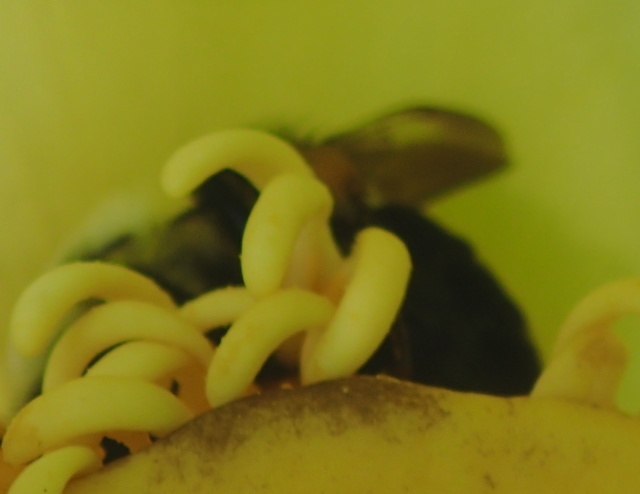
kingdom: Animalia
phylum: Arthropoda
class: Insecta
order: Hymenoptera
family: Apidae
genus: Bombus
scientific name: Bombus impatiens
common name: Common eastern bumble bee
